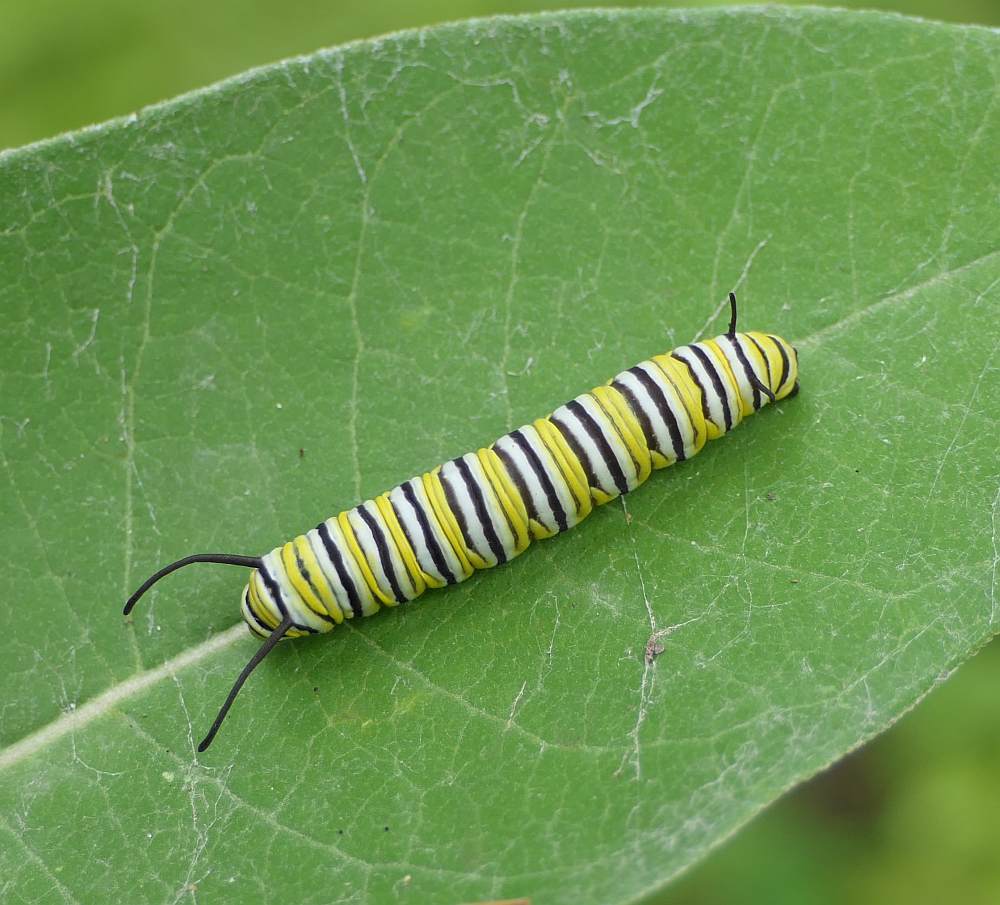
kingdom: Animalia
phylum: Arthropoda
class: Insecta
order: Lepidoptera
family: Nymphalidae
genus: Danaus
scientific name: Danaus plexippus
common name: Monarch
